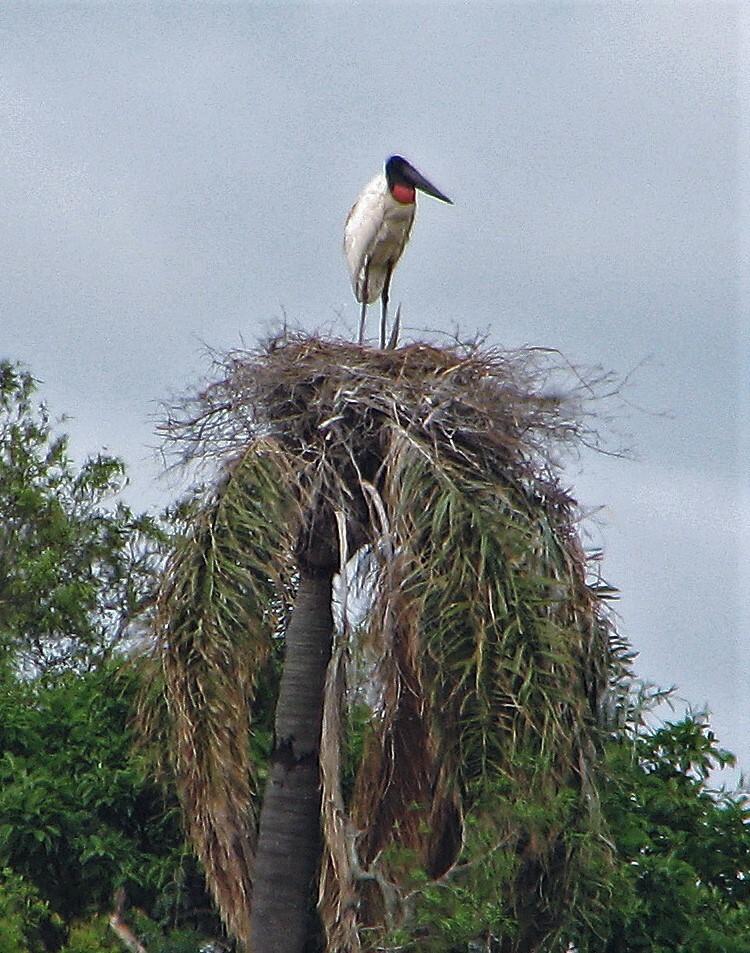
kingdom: Animalia
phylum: Chordata
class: Aves
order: Ciconiiformes
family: Ciconiidae
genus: Jabiru
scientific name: Jabiru mycteria
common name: Jabiru
